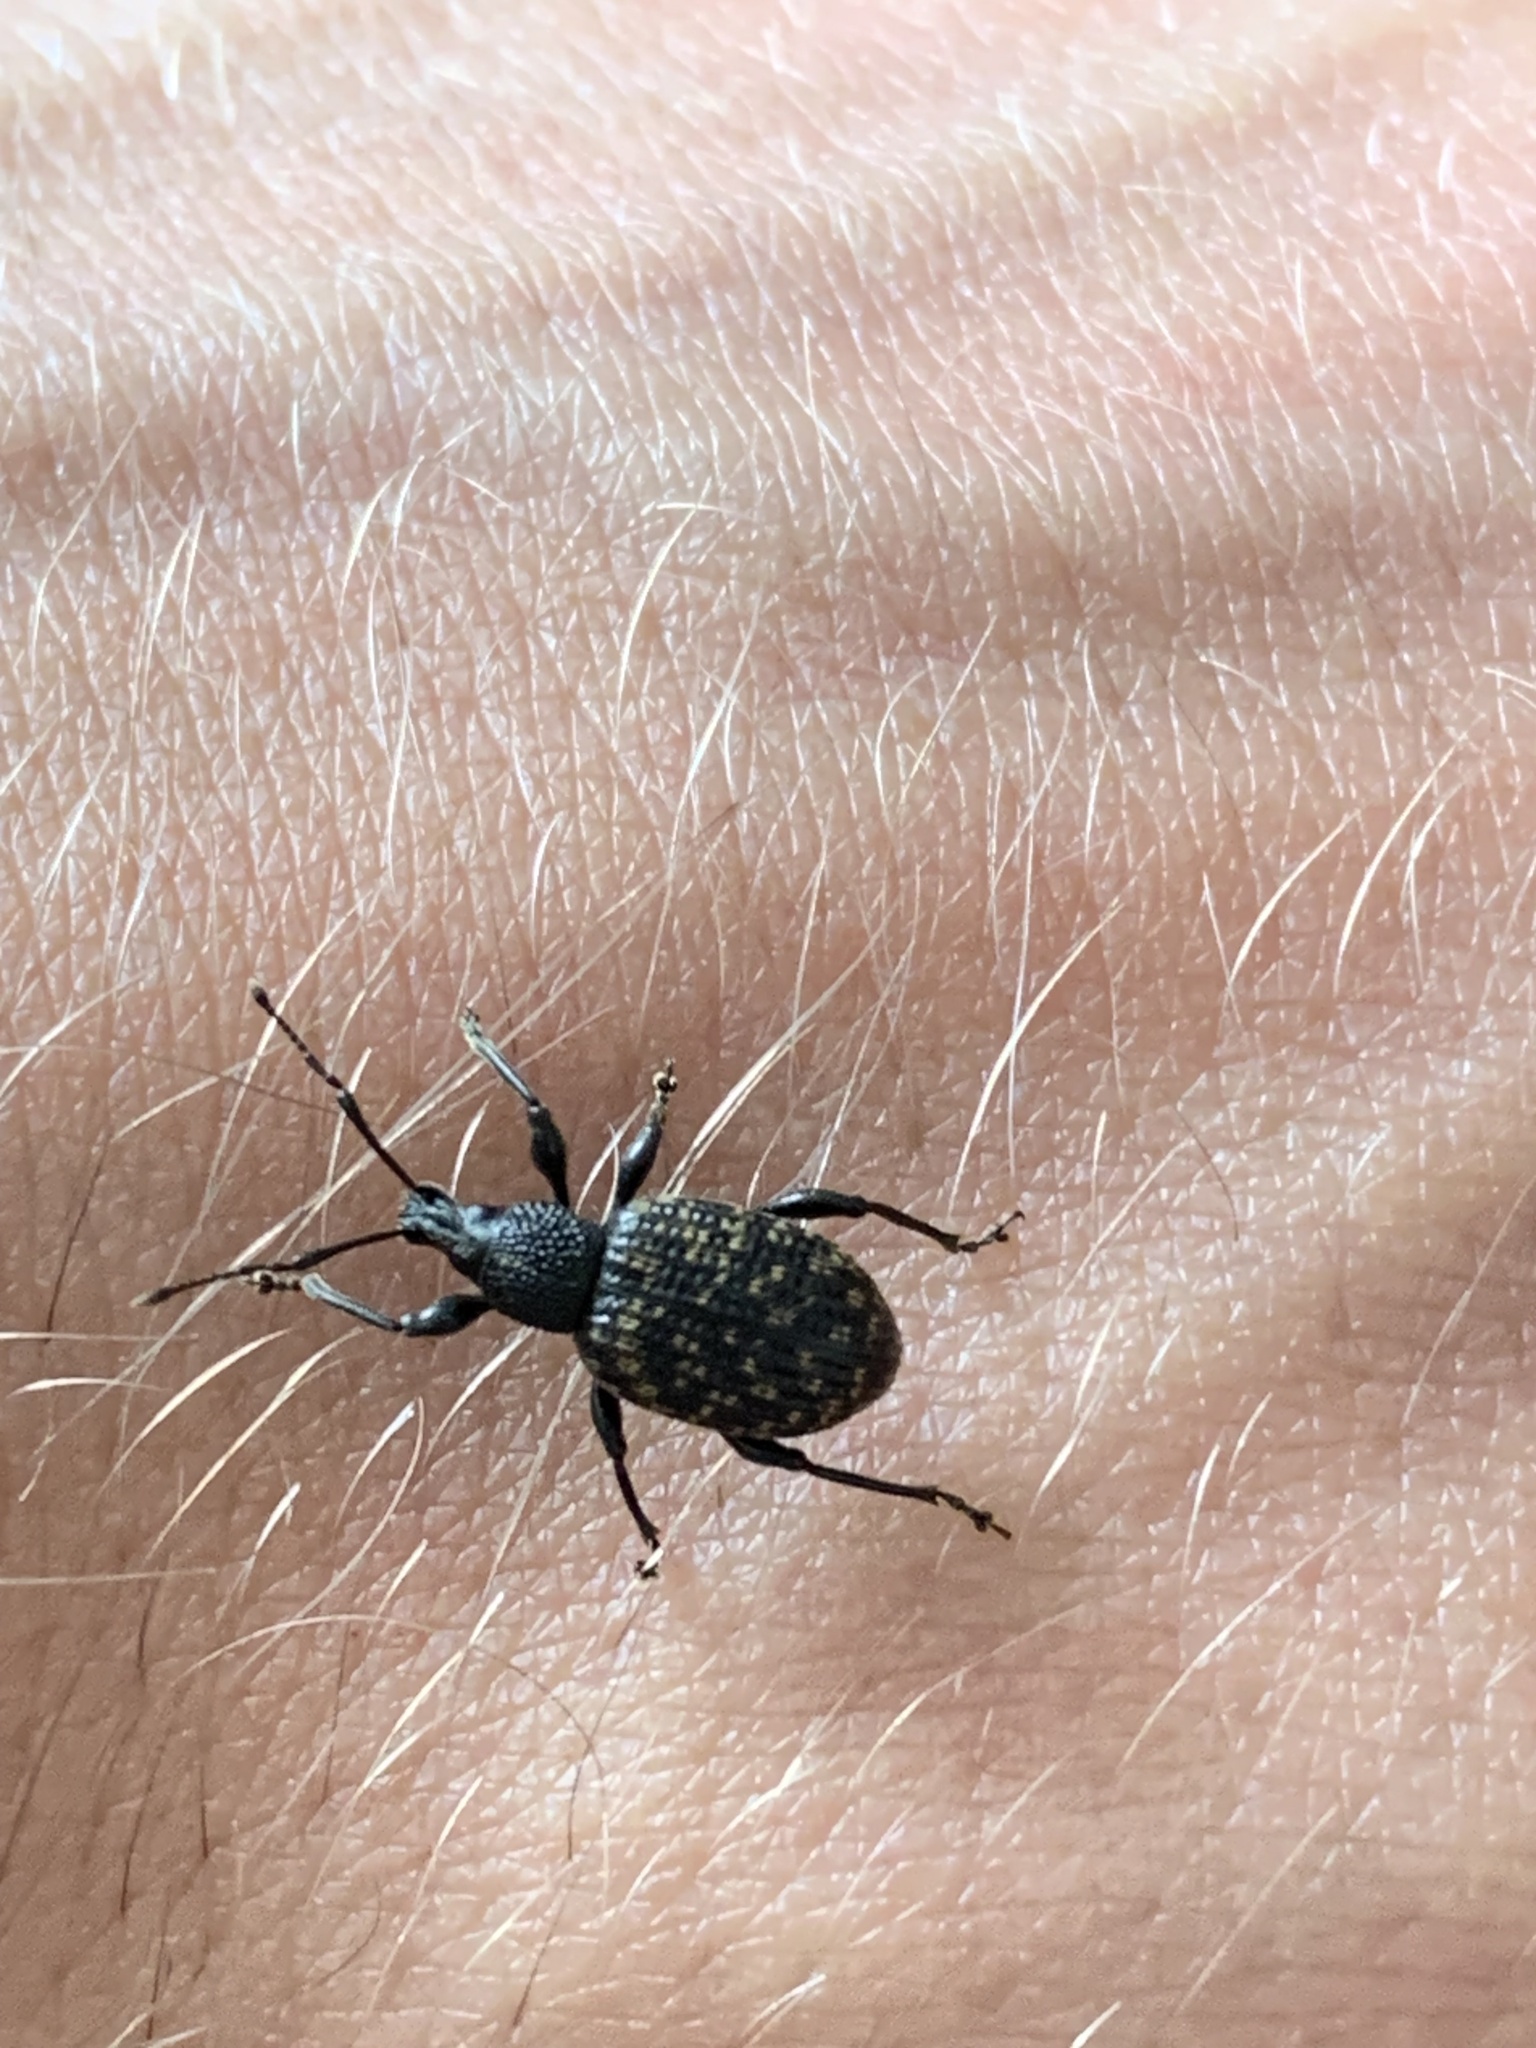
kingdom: Animalia
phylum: Arthropoda
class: Insecta
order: Coleoptera
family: Curculionidae
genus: Otiorhynchus
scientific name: Otiorhynchus sulcatus
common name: Black vine weevil
